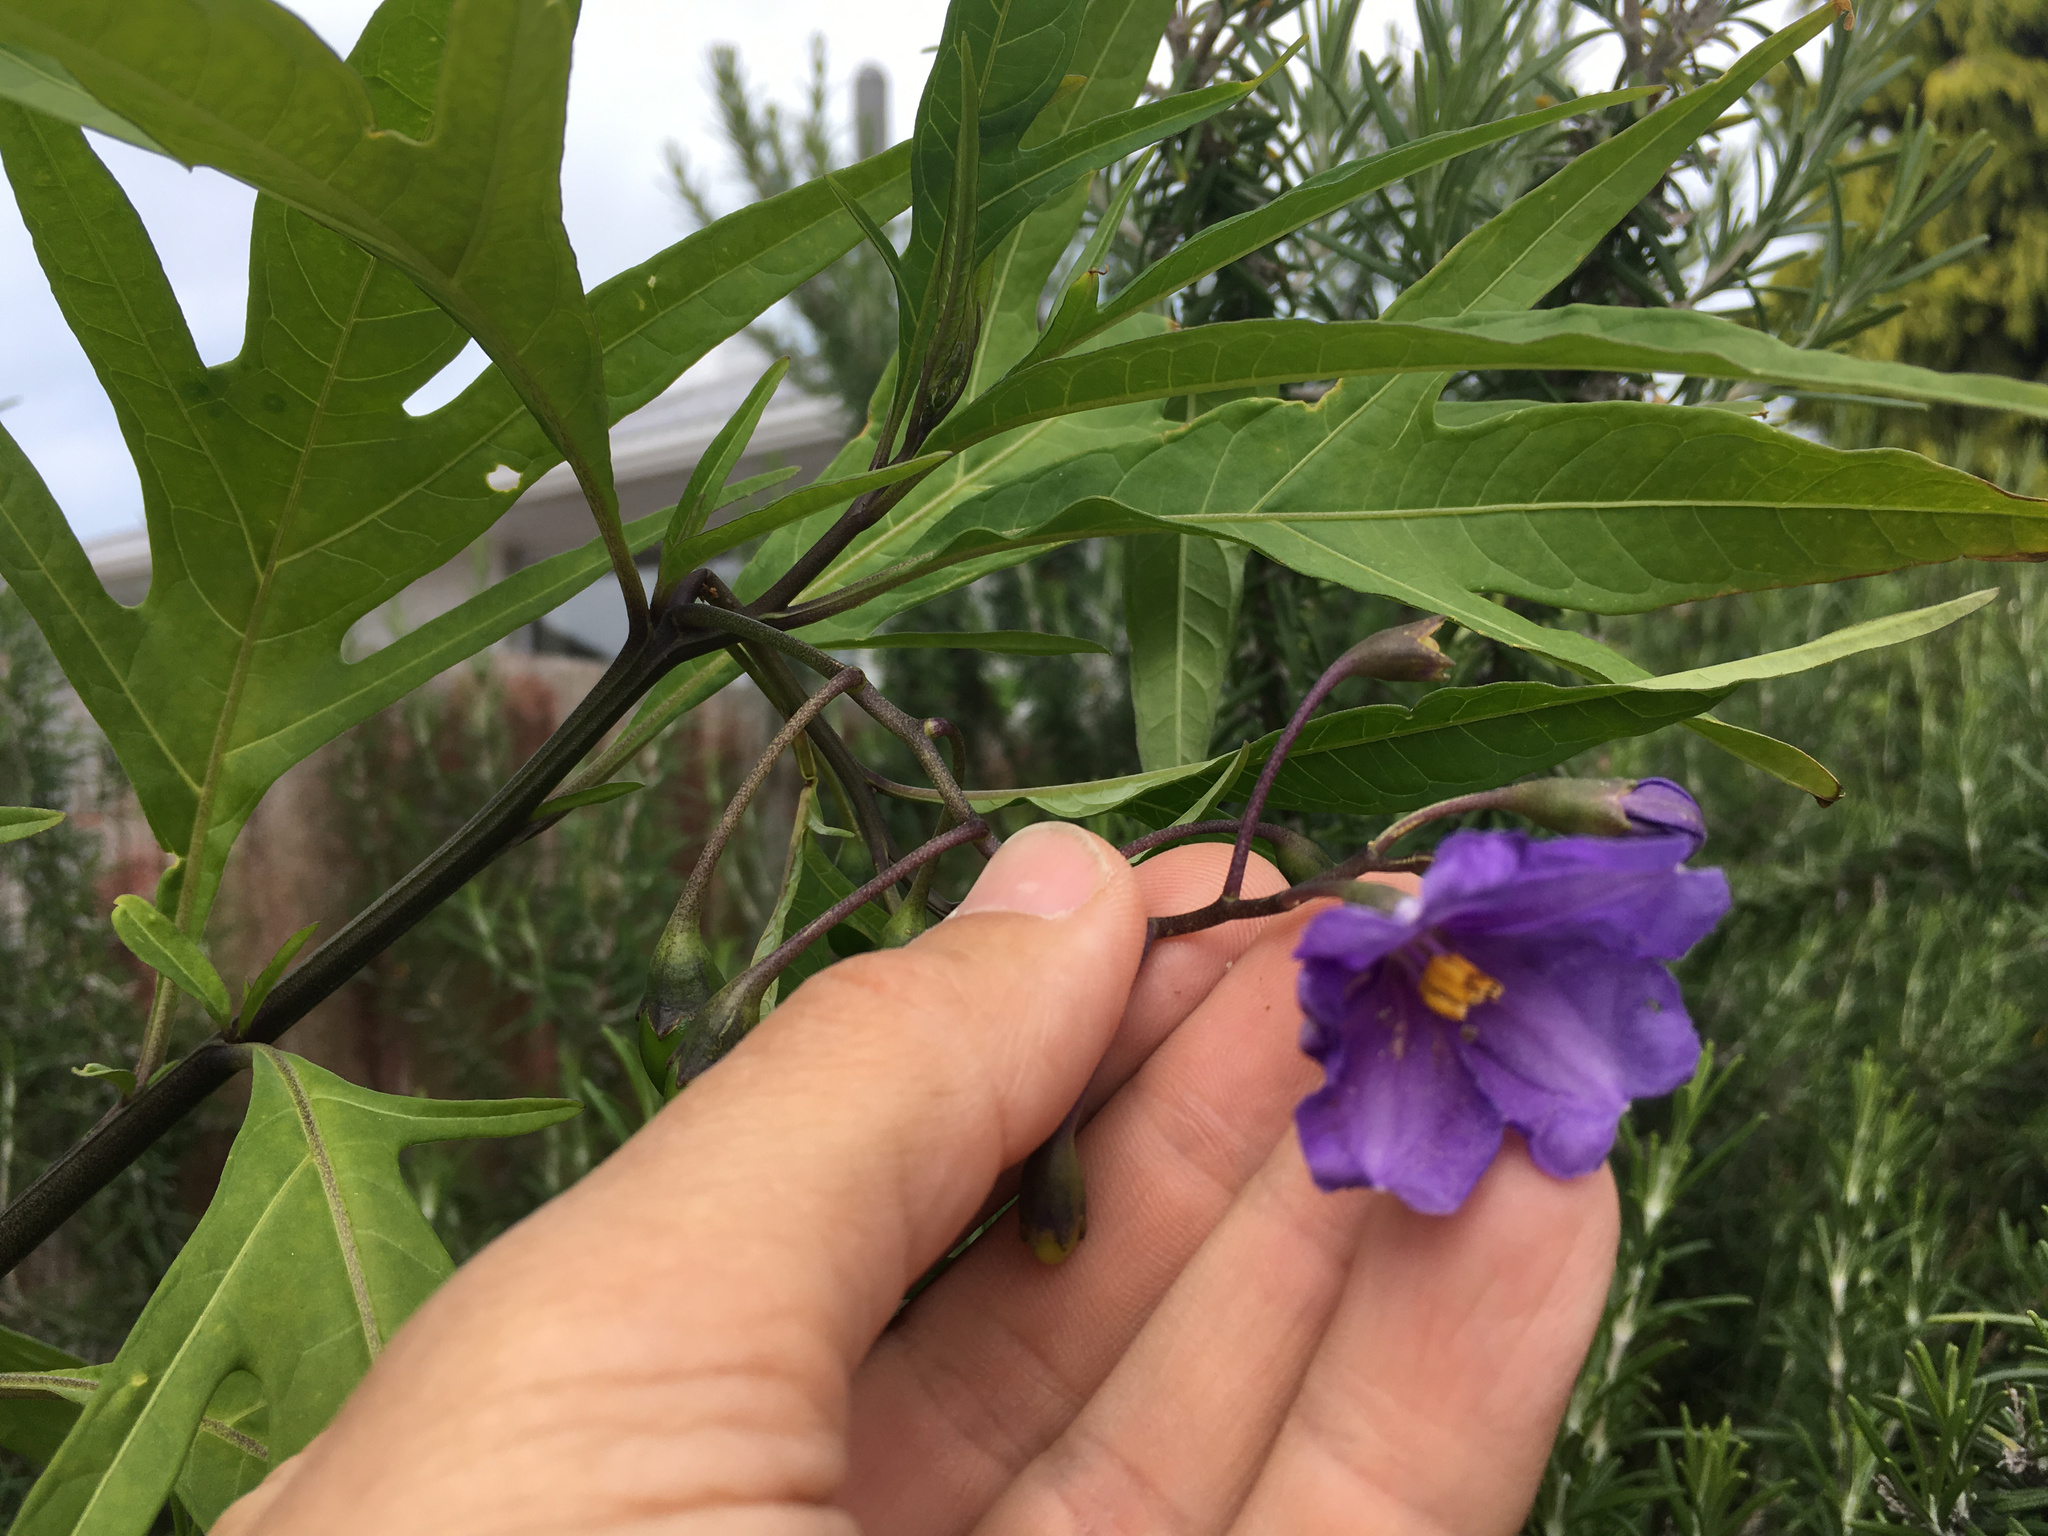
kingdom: Plantae
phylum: Tracheophyta
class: Magnoliopsida
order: Solanales
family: Solanaceae
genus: Solanum
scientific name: Solanum laciniatum
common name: Kangaroo-apple
